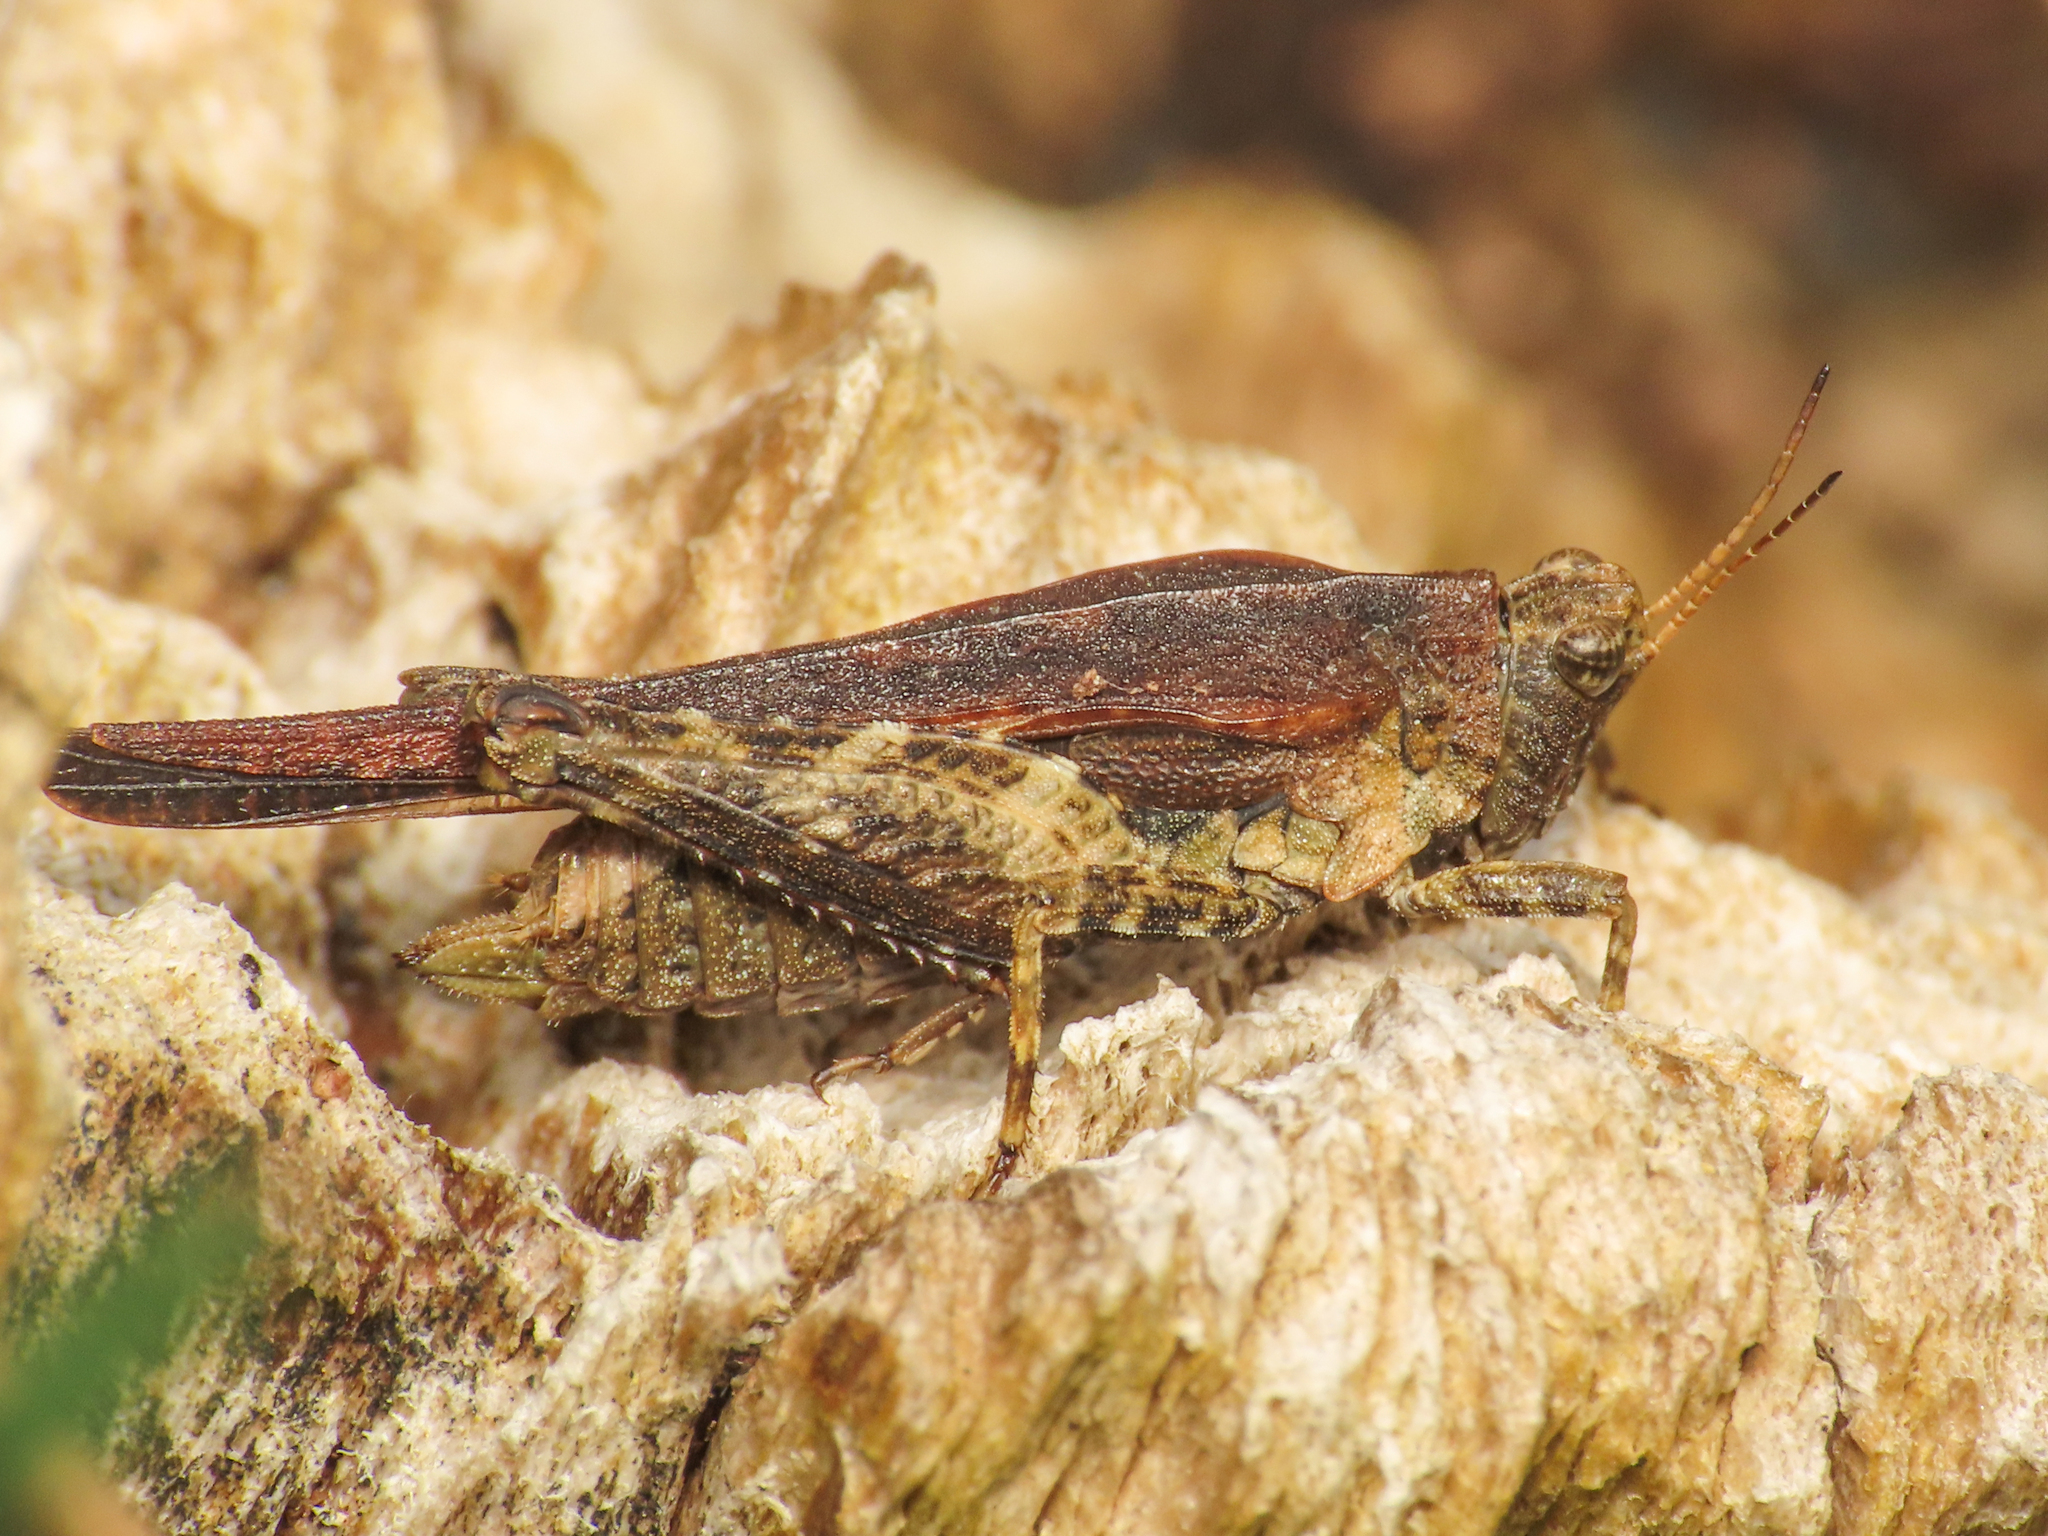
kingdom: Animalia
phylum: Arthropoda
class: Insecta
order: Orthoptera
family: Tetrigidae
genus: Tetrix
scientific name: Tetrix subulata
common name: Slender ground-hopper
